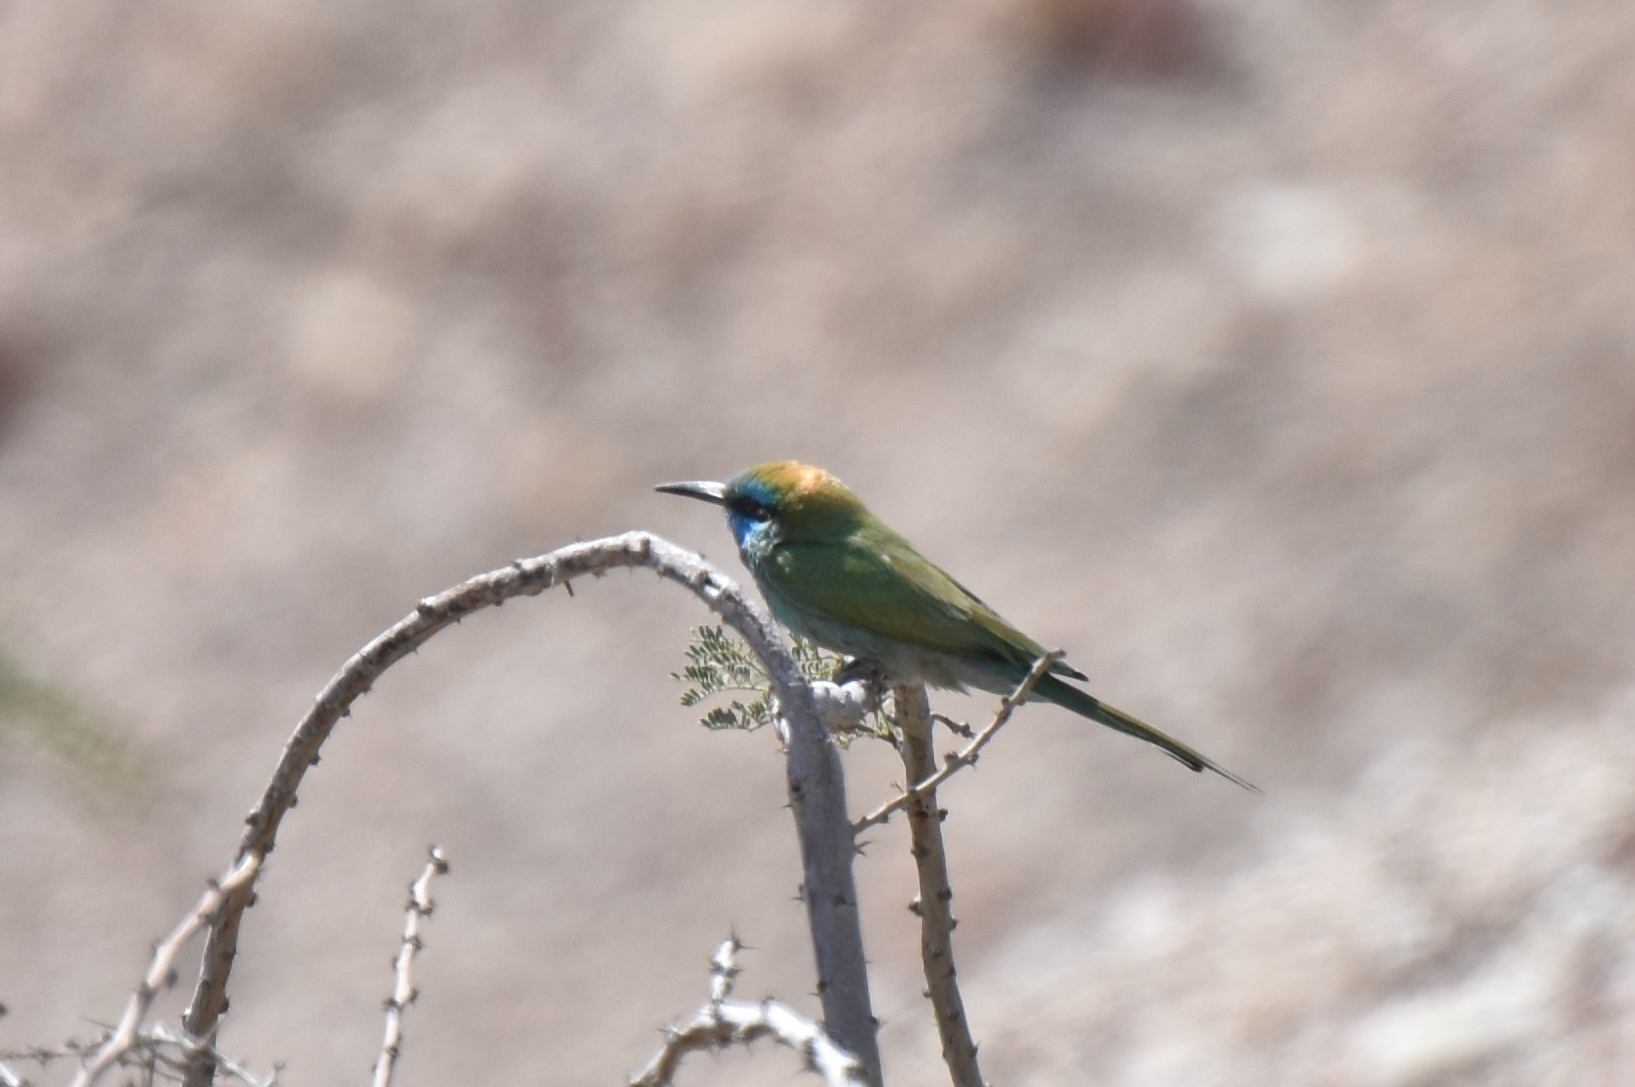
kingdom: Animalia
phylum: Chordata
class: Aves
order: Coraciiformes
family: Meropidae
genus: Merops
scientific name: Merops cyanophrys
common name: Arabian green bee-eater
